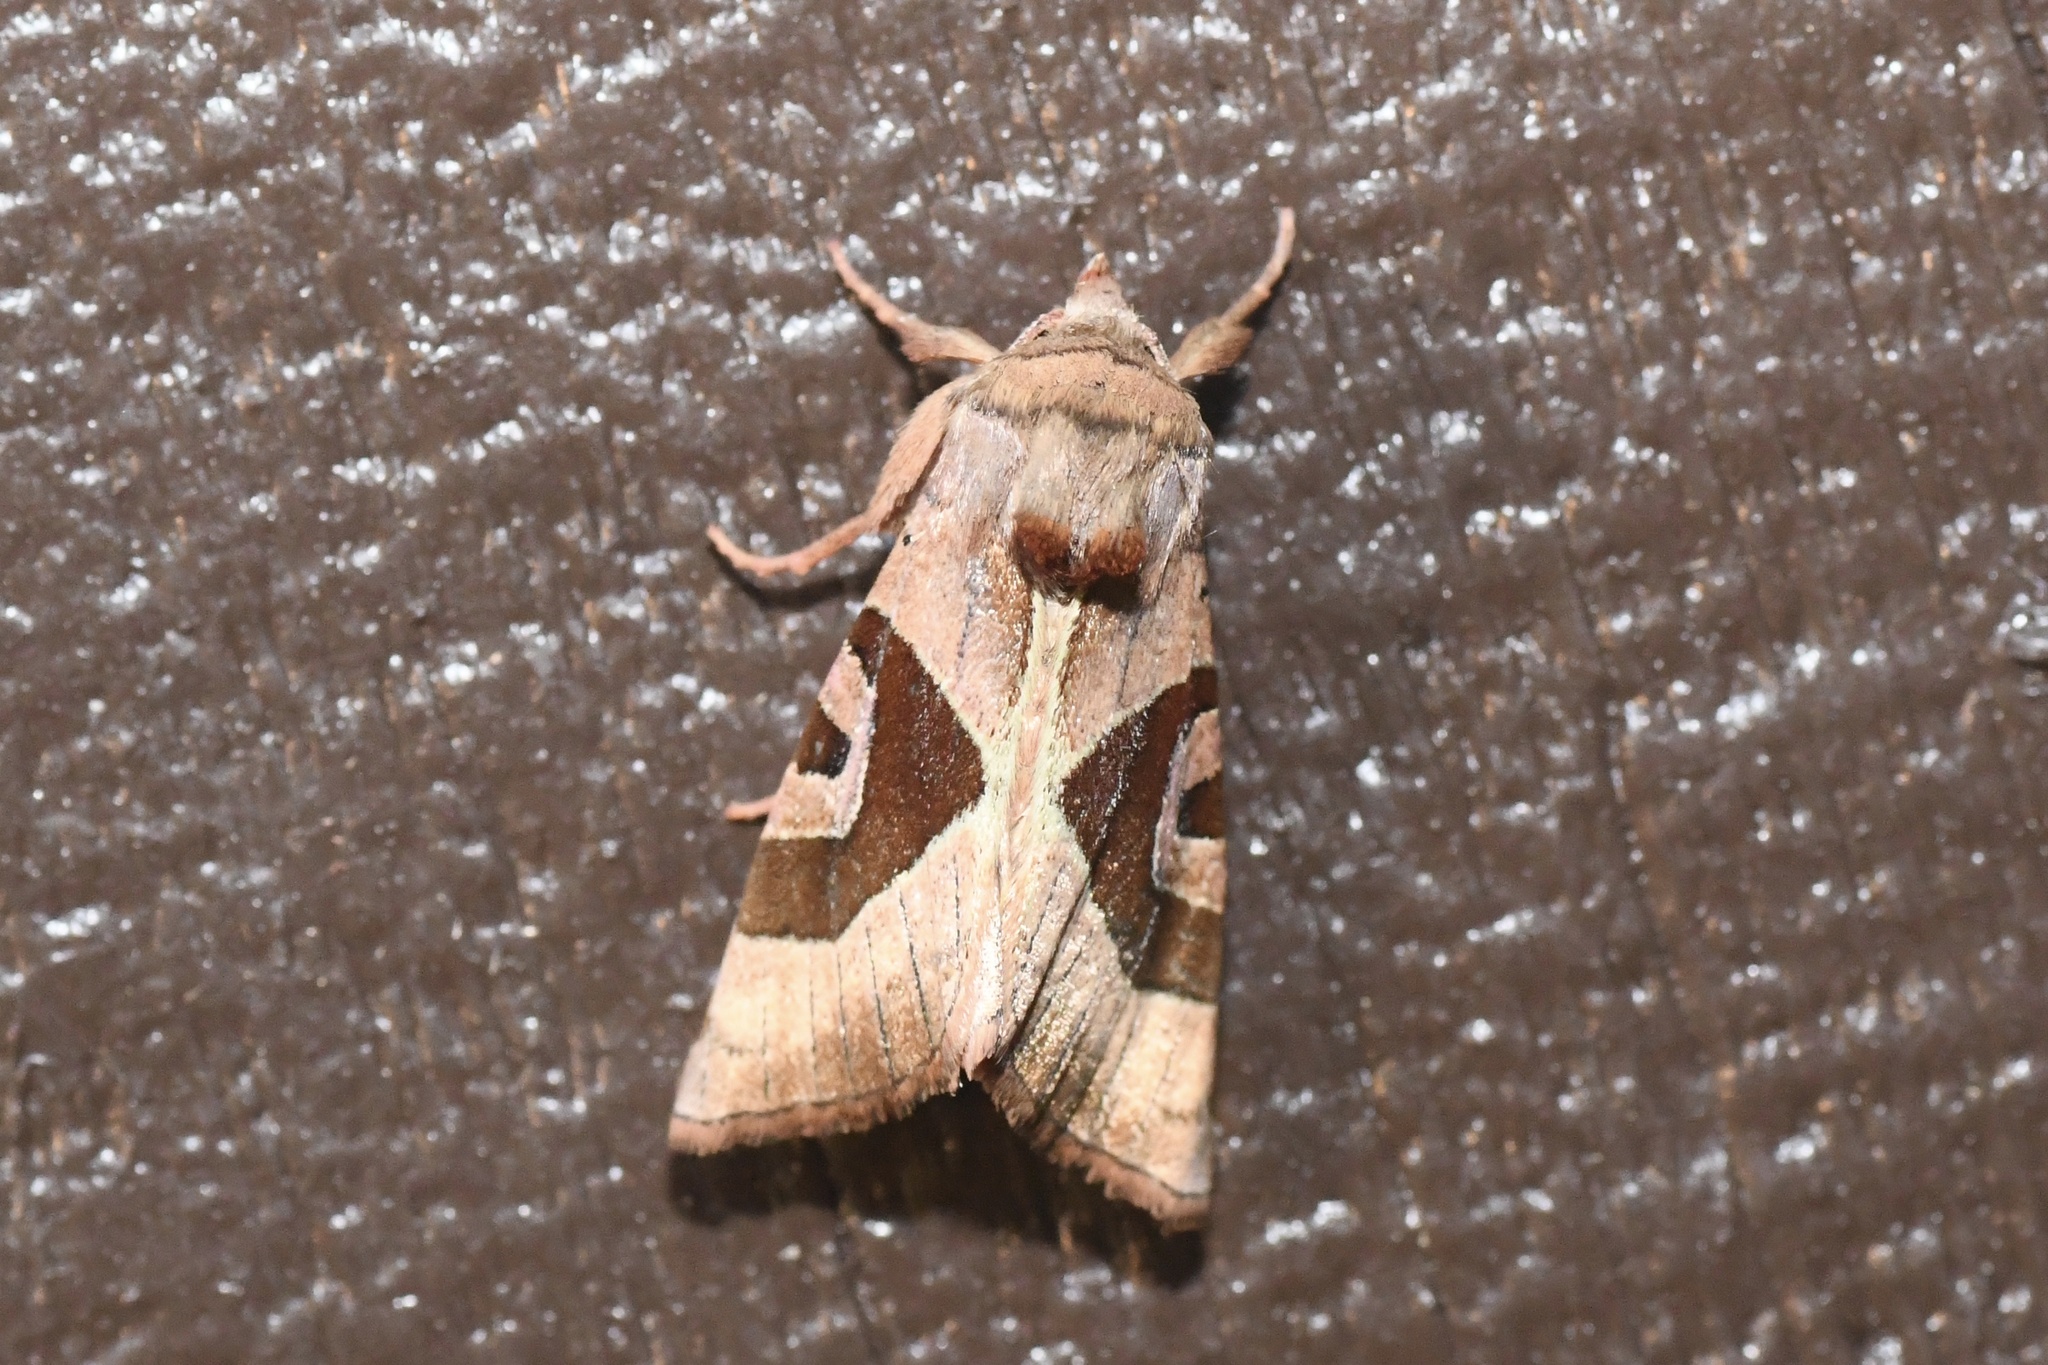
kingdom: Animalia
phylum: Arthropoda
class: Insecta
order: Lepidoptera
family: Noctuidae
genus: Conservula
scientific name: Conservula anodonta
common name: Sharp angle shades
